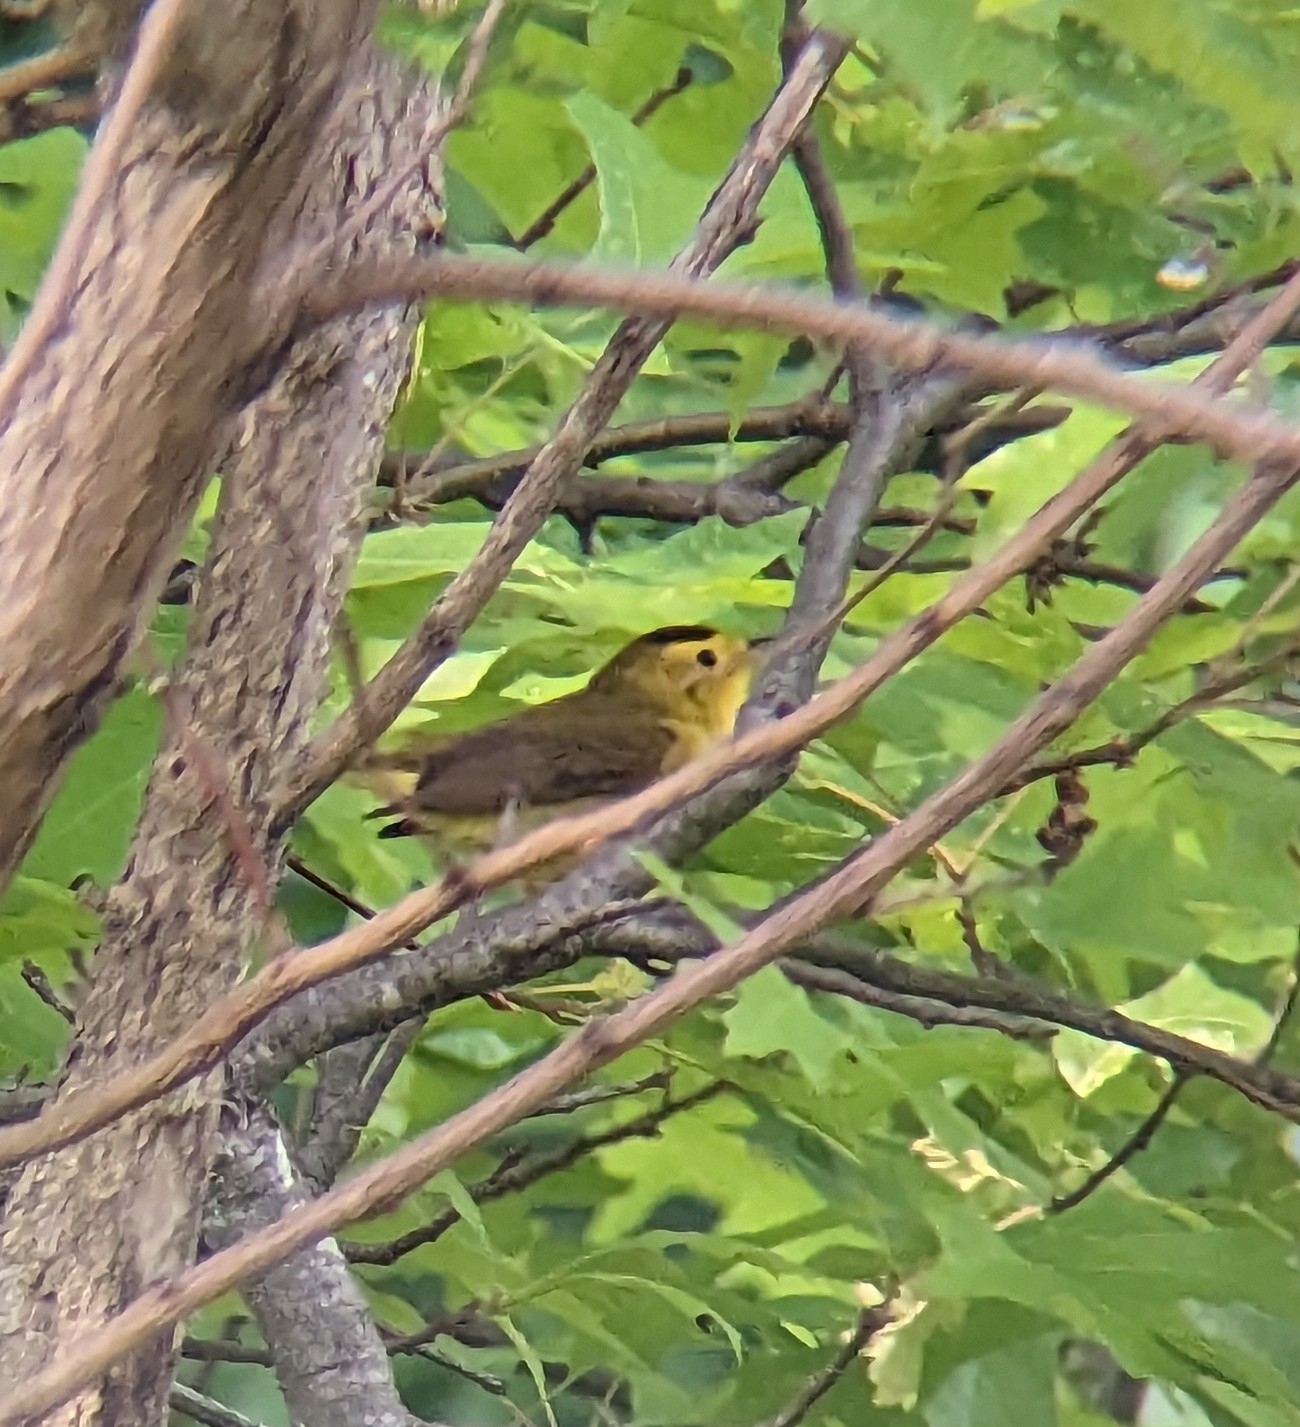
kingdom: Animalia
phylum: Chordata
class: Aves
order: Passeriformes
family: Parulidae
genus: Cardellina
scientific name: Cardellina pusilla
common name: Wilson's warbler
